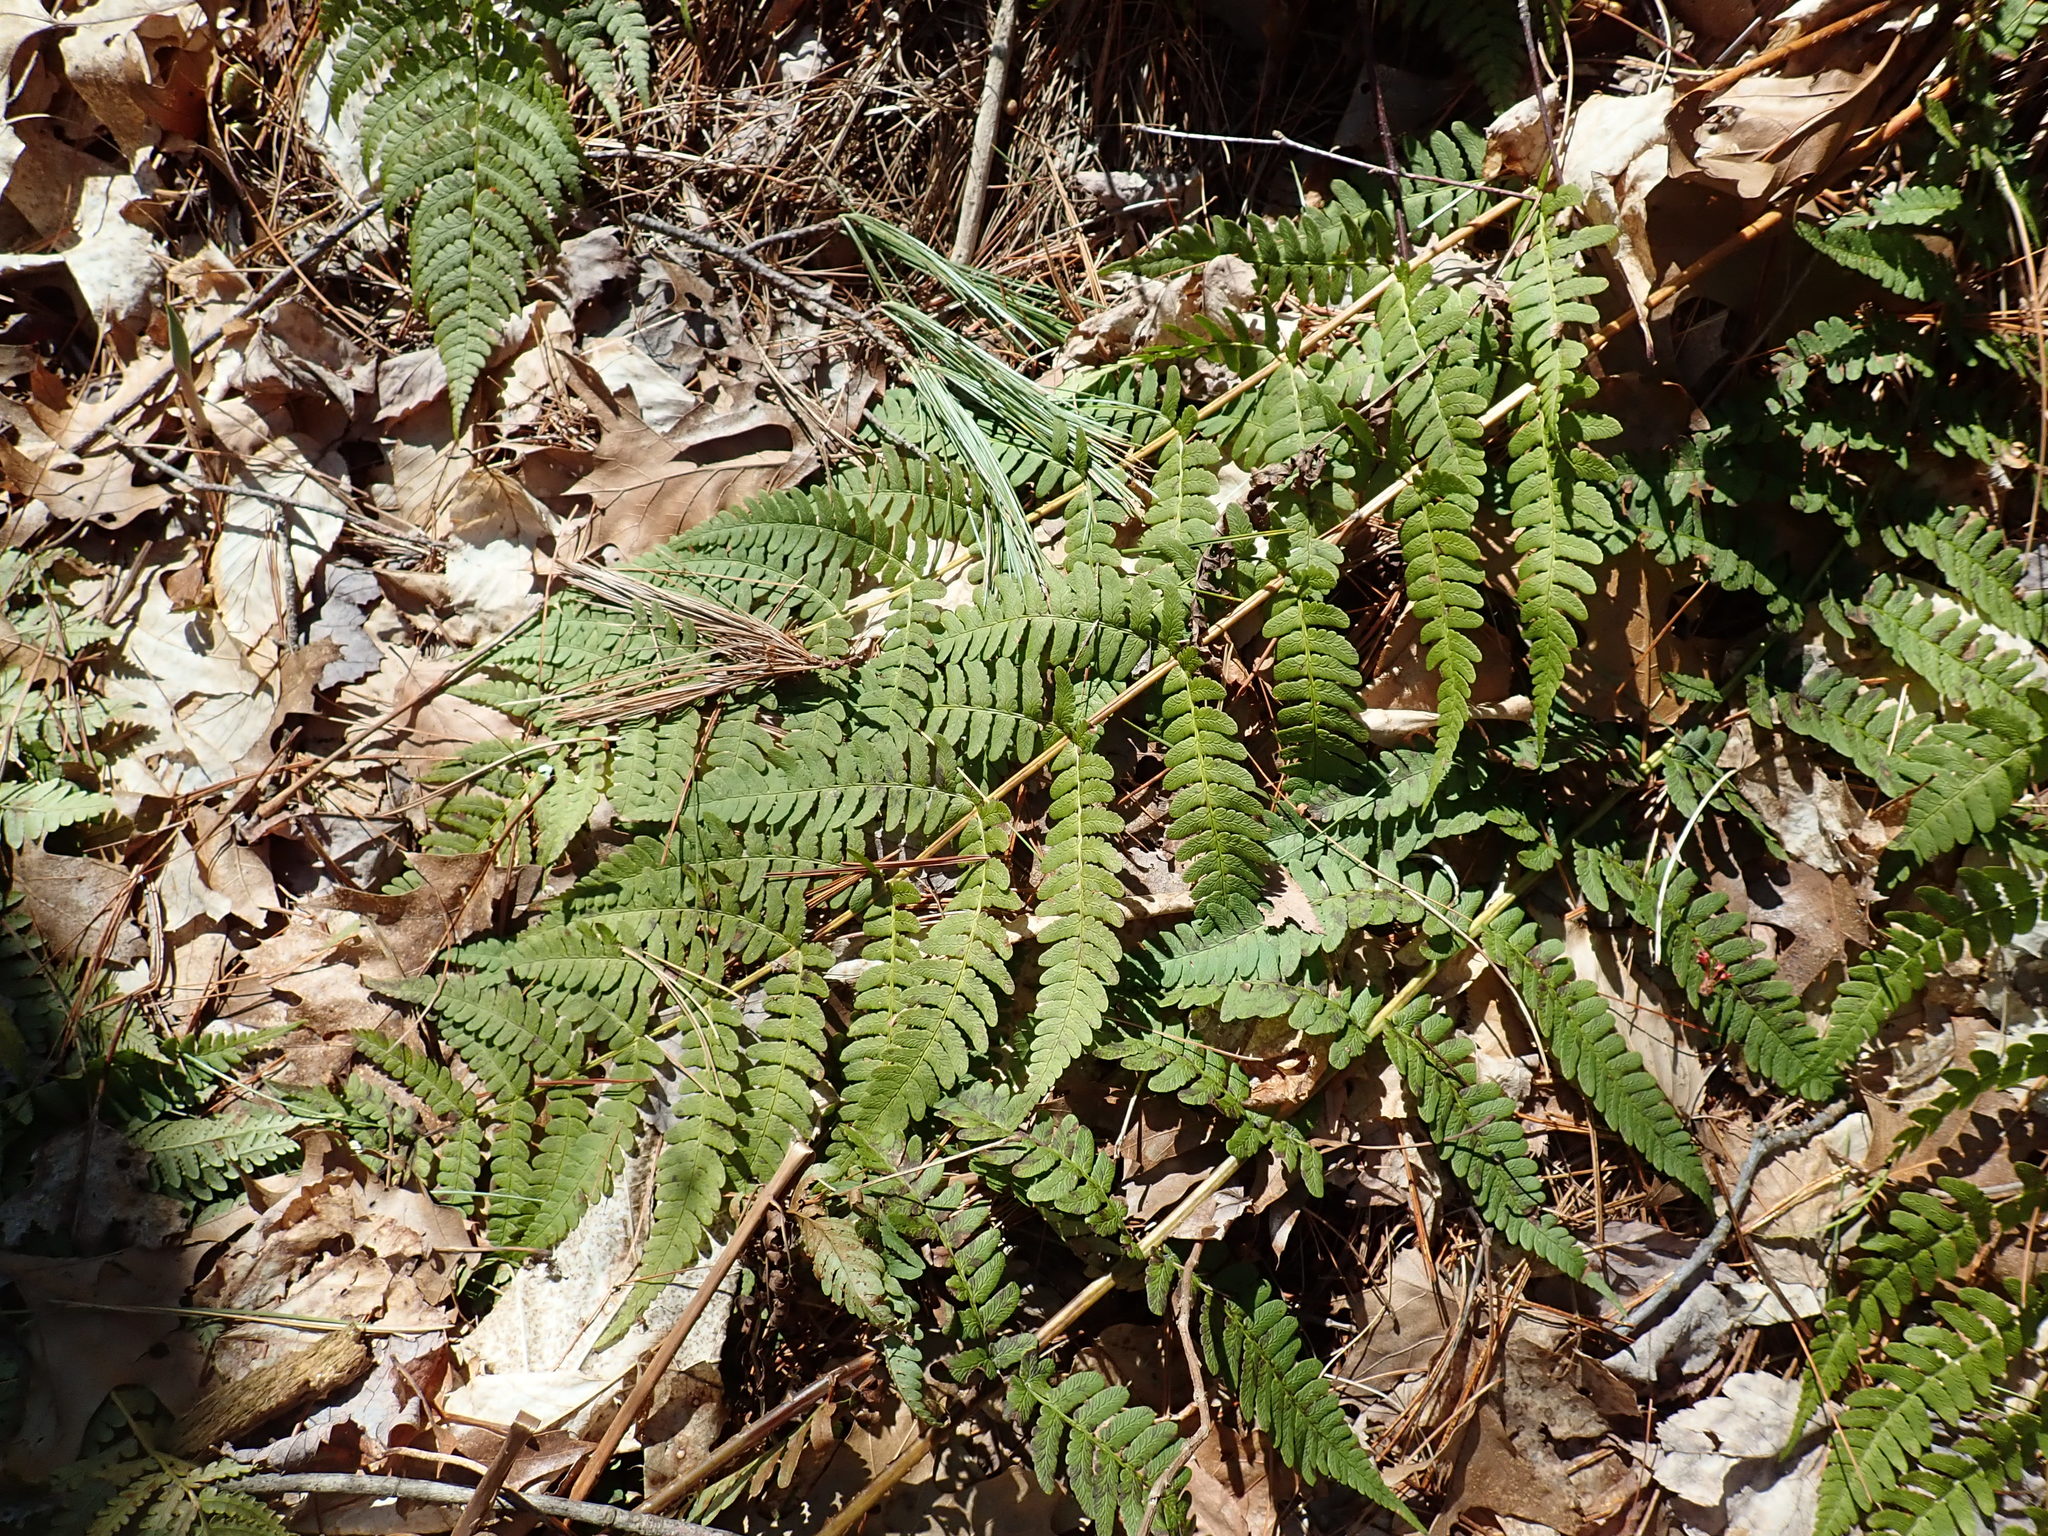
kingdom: Plantae
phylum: Tracheophyta
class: Polypodiopsida
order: Polypodiales
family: Dryopteridaceae
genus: Dryopteris
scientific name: Dryopteris marginalis
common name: Marginal wood fern
